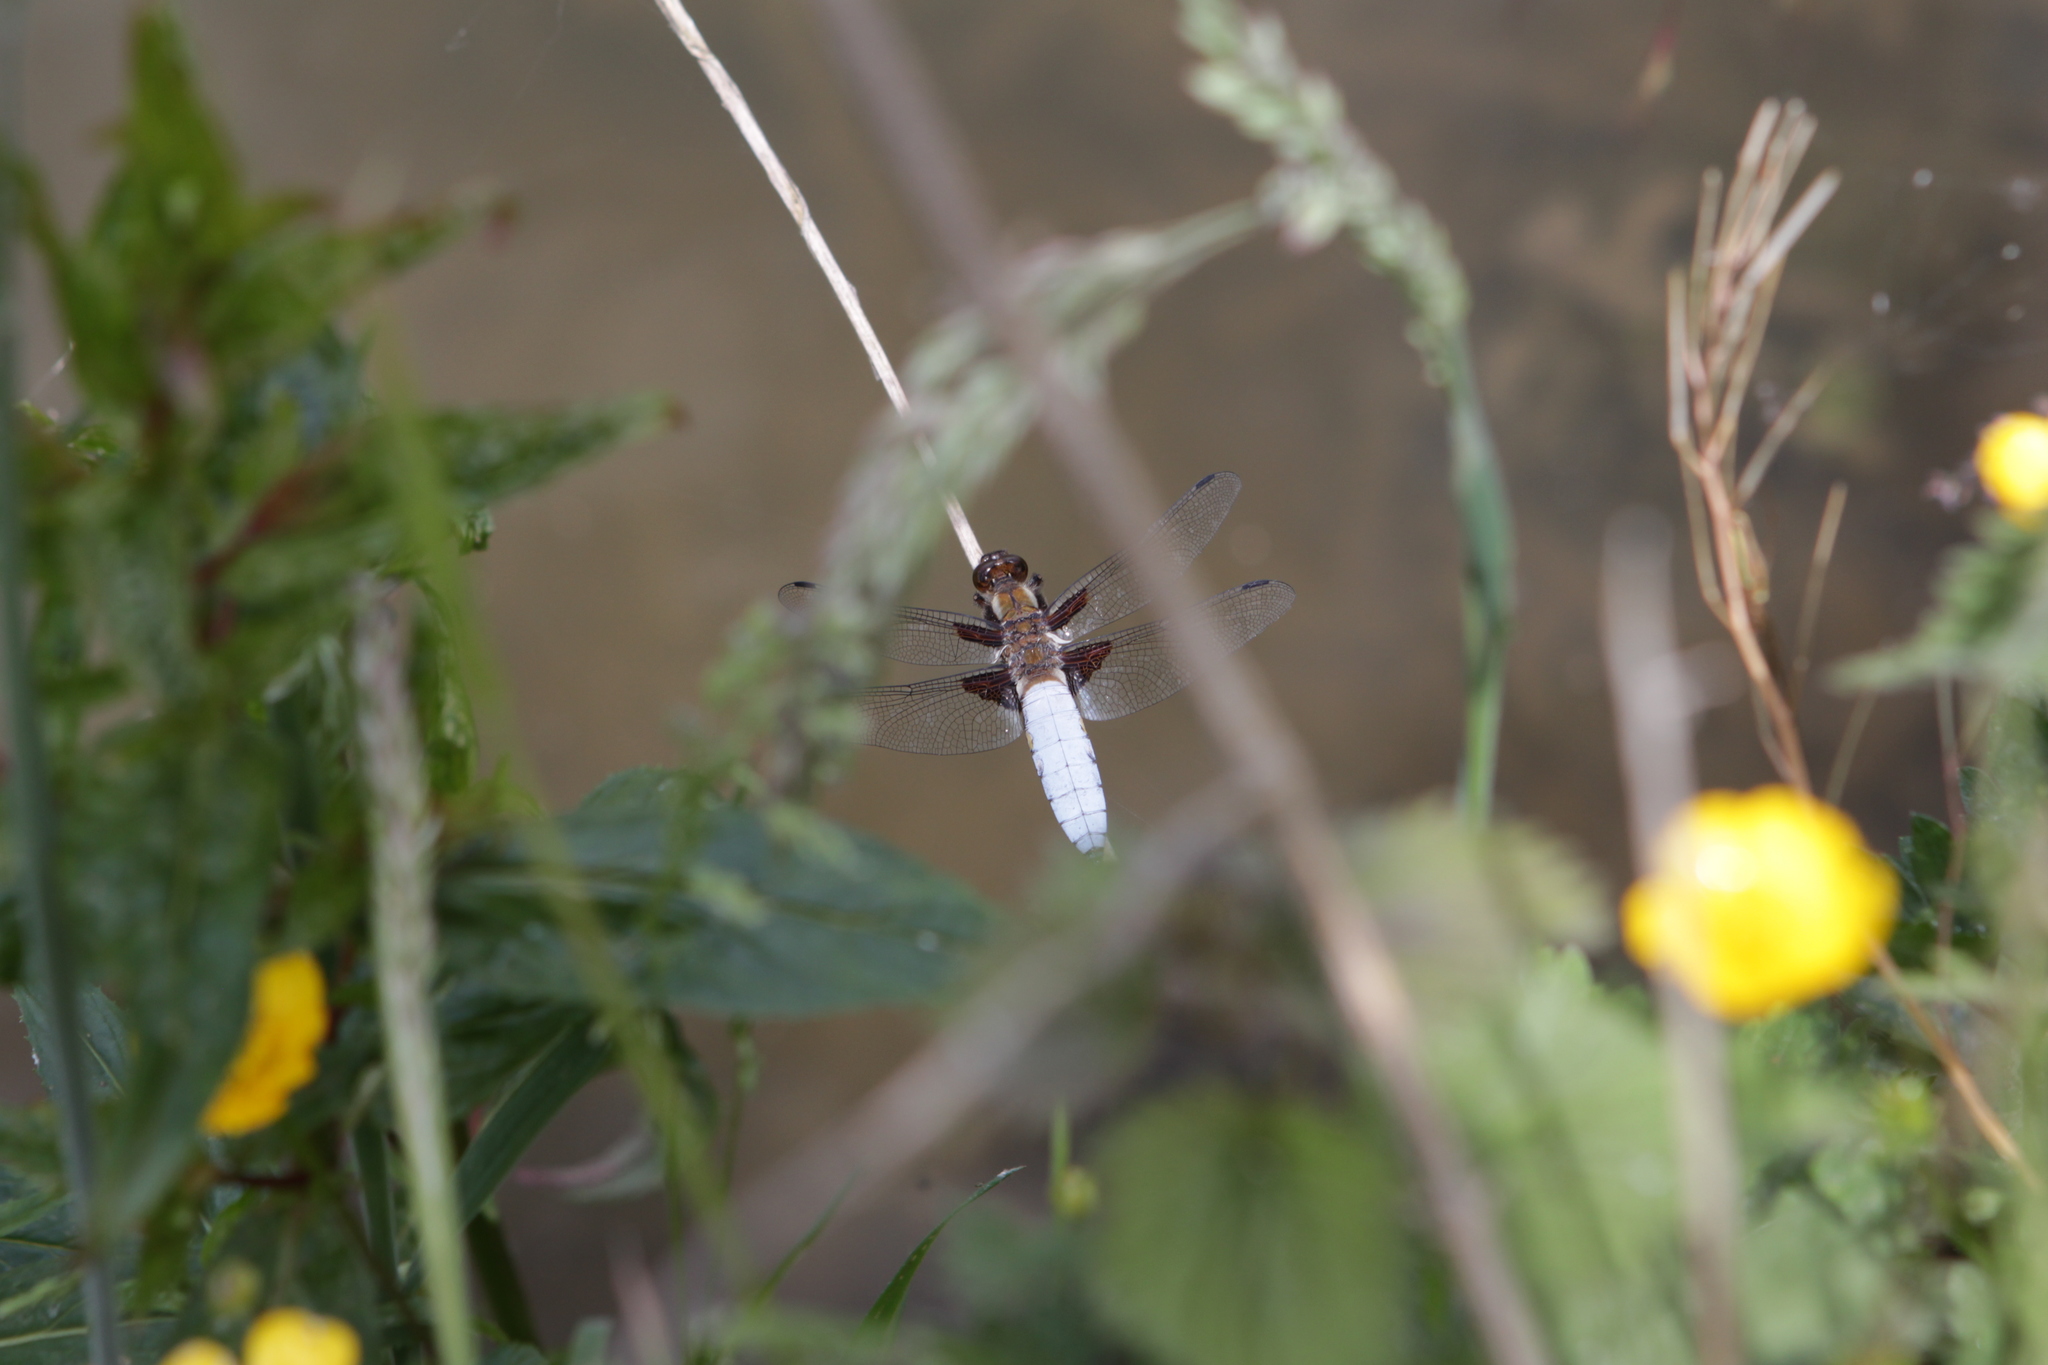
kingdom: Animalia
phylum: Arthropoda
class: Insecta
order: Odonata
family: Libellulidae
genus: Libellula
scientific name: Libellula depressa
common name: Broad-bodied chaser
